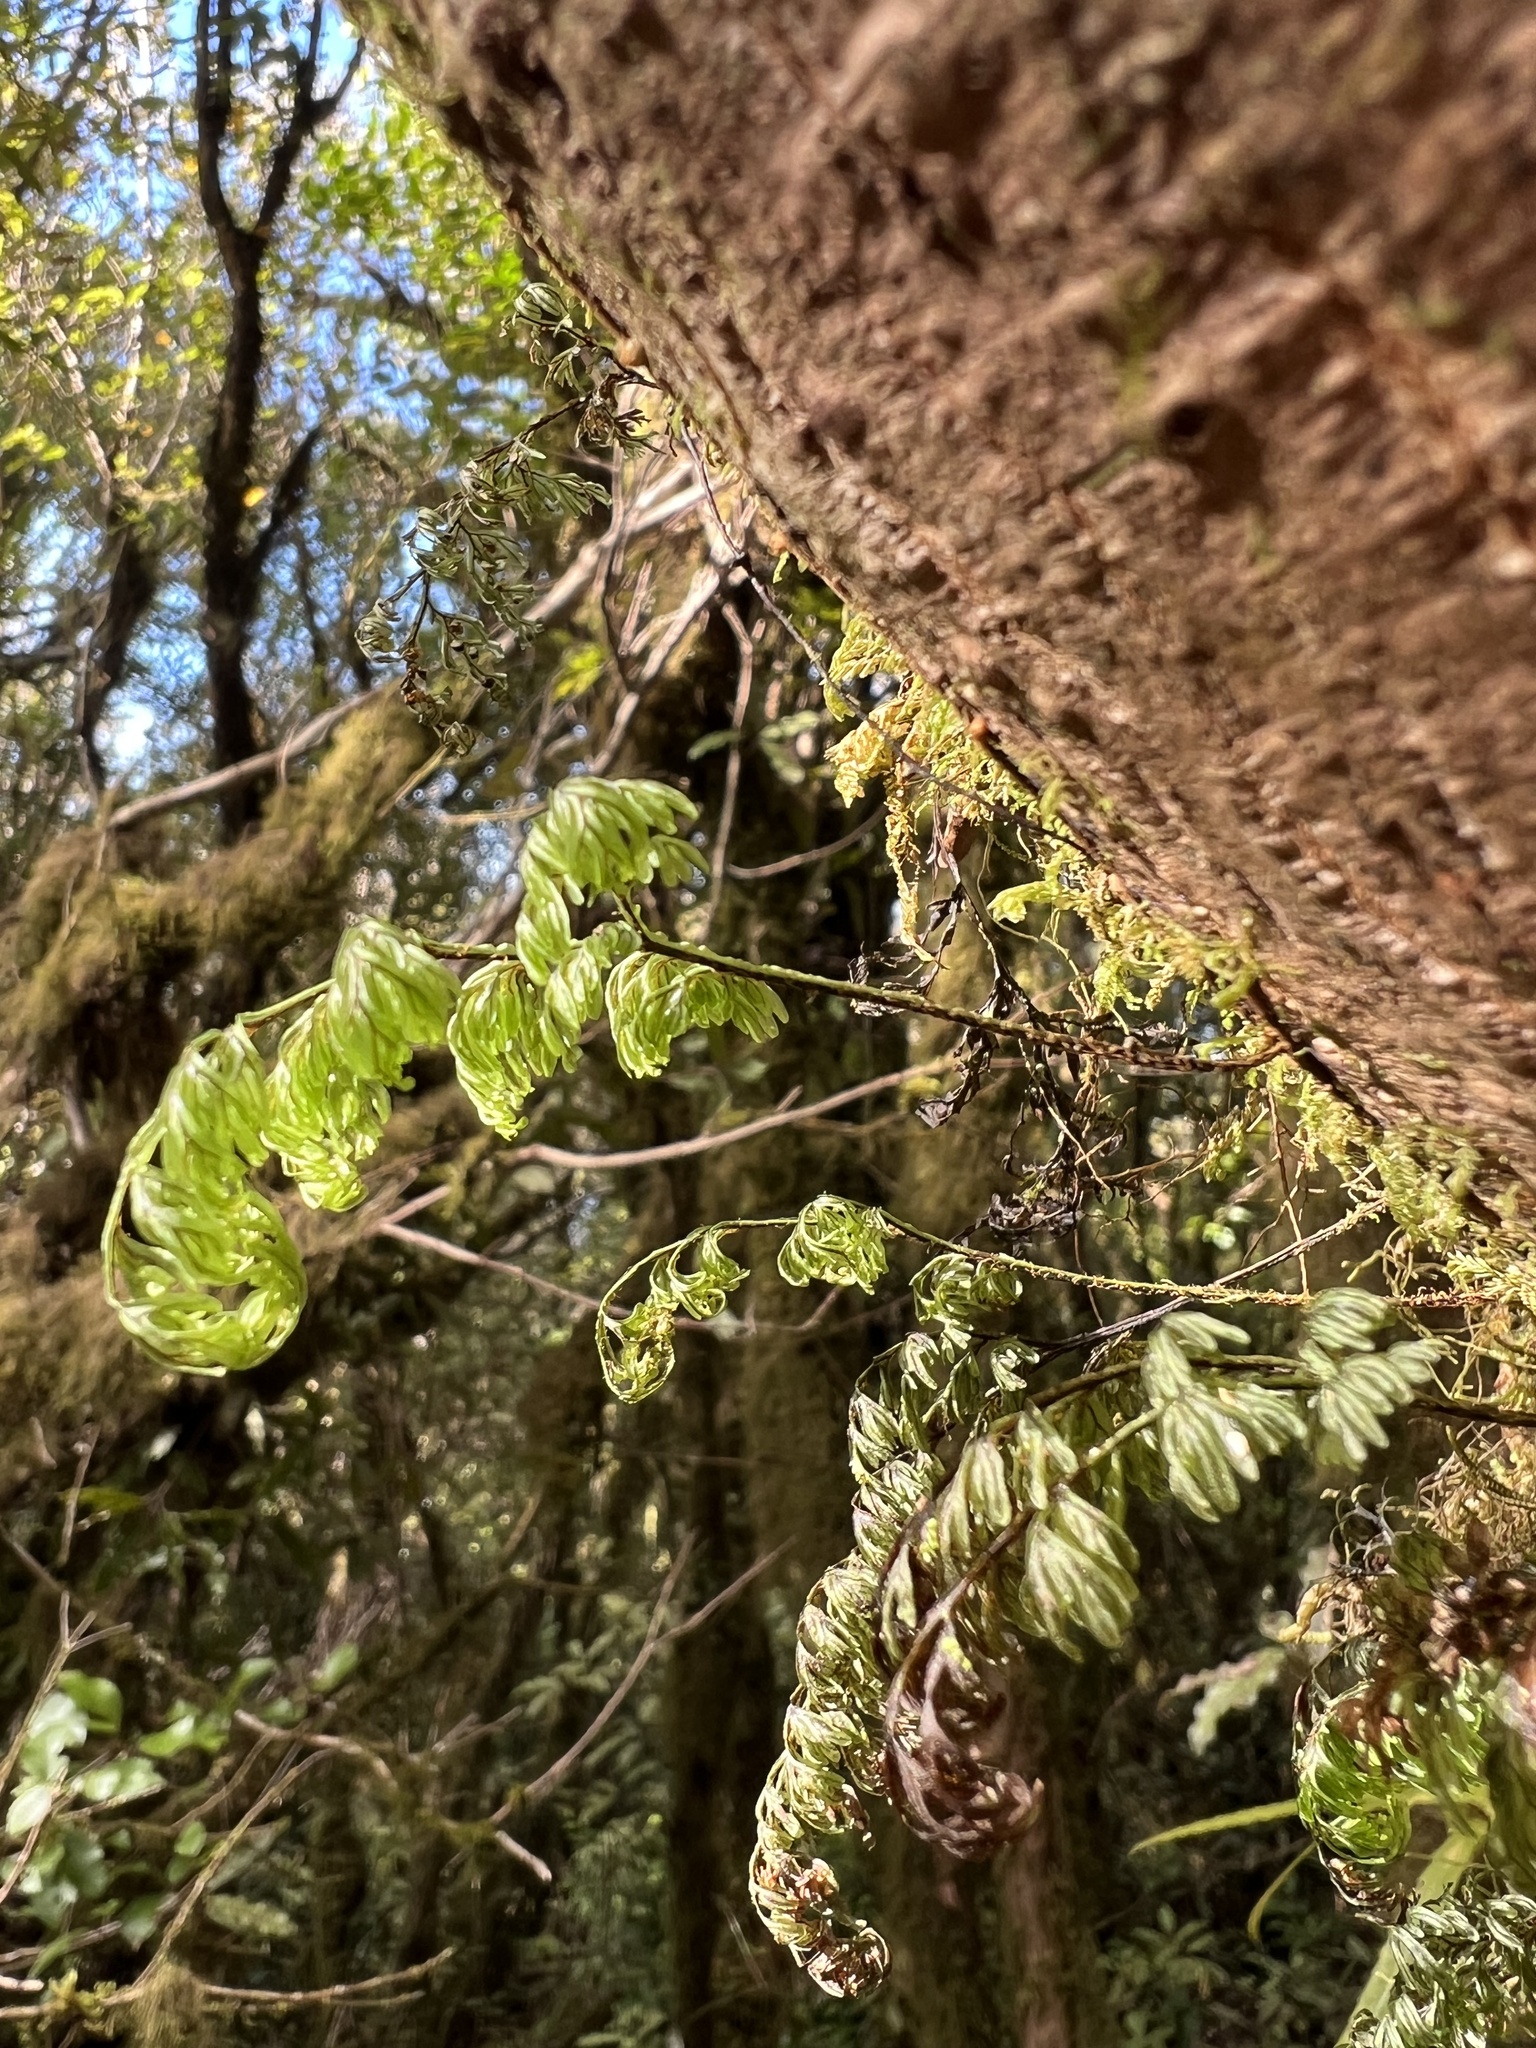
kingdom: Plantae
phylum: Tracheophyta
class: Polypodiopsida
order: Hymenophyllales
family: Hymenophyllaceae
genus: Hymenophyllum
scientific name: Hymenophyllum villosum
